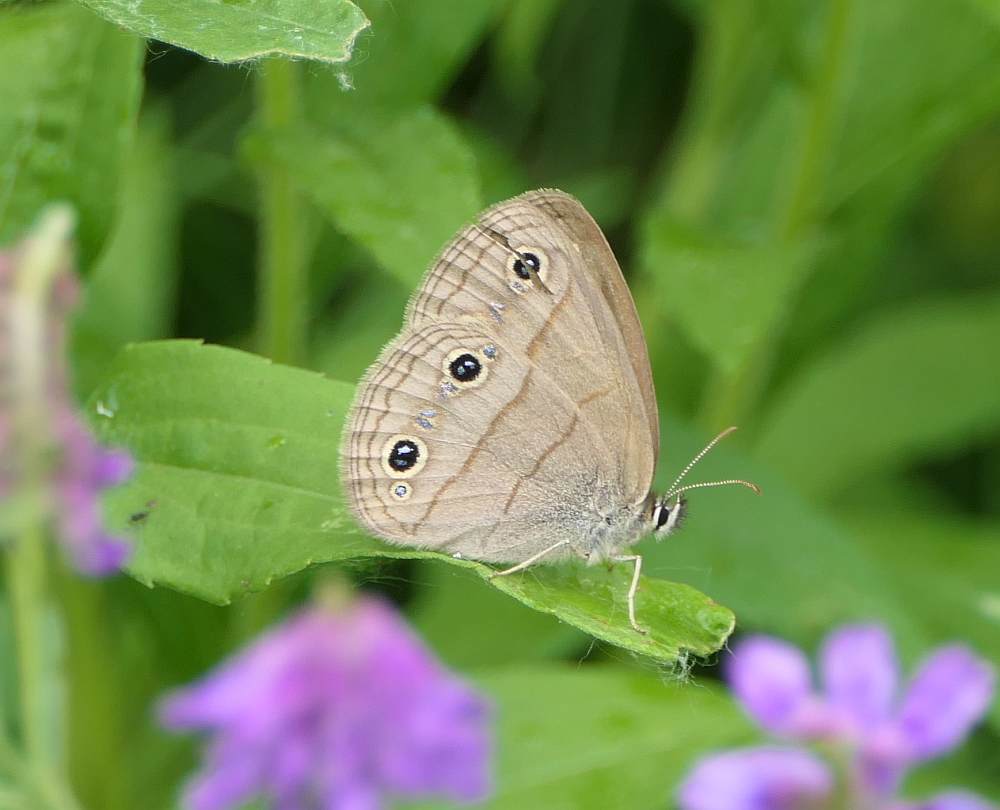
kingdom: Animalia
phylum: Arthropoda
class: Insecta
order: Lepidoptera
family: Nymphalidae
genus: Euptychia
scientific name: Euptychia cymela
